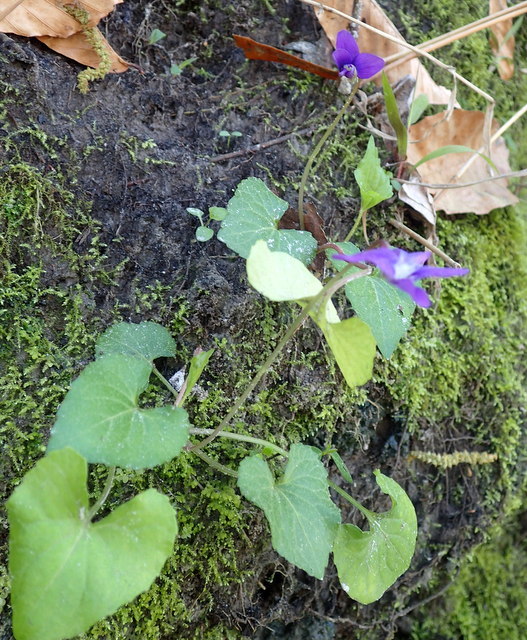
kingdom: Plantae
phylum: Tracheophyta
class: Magnoliopsida
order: Malpighiales
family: Violaceae
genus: Viola
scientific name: Viola sororia
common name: Dooryard violet
